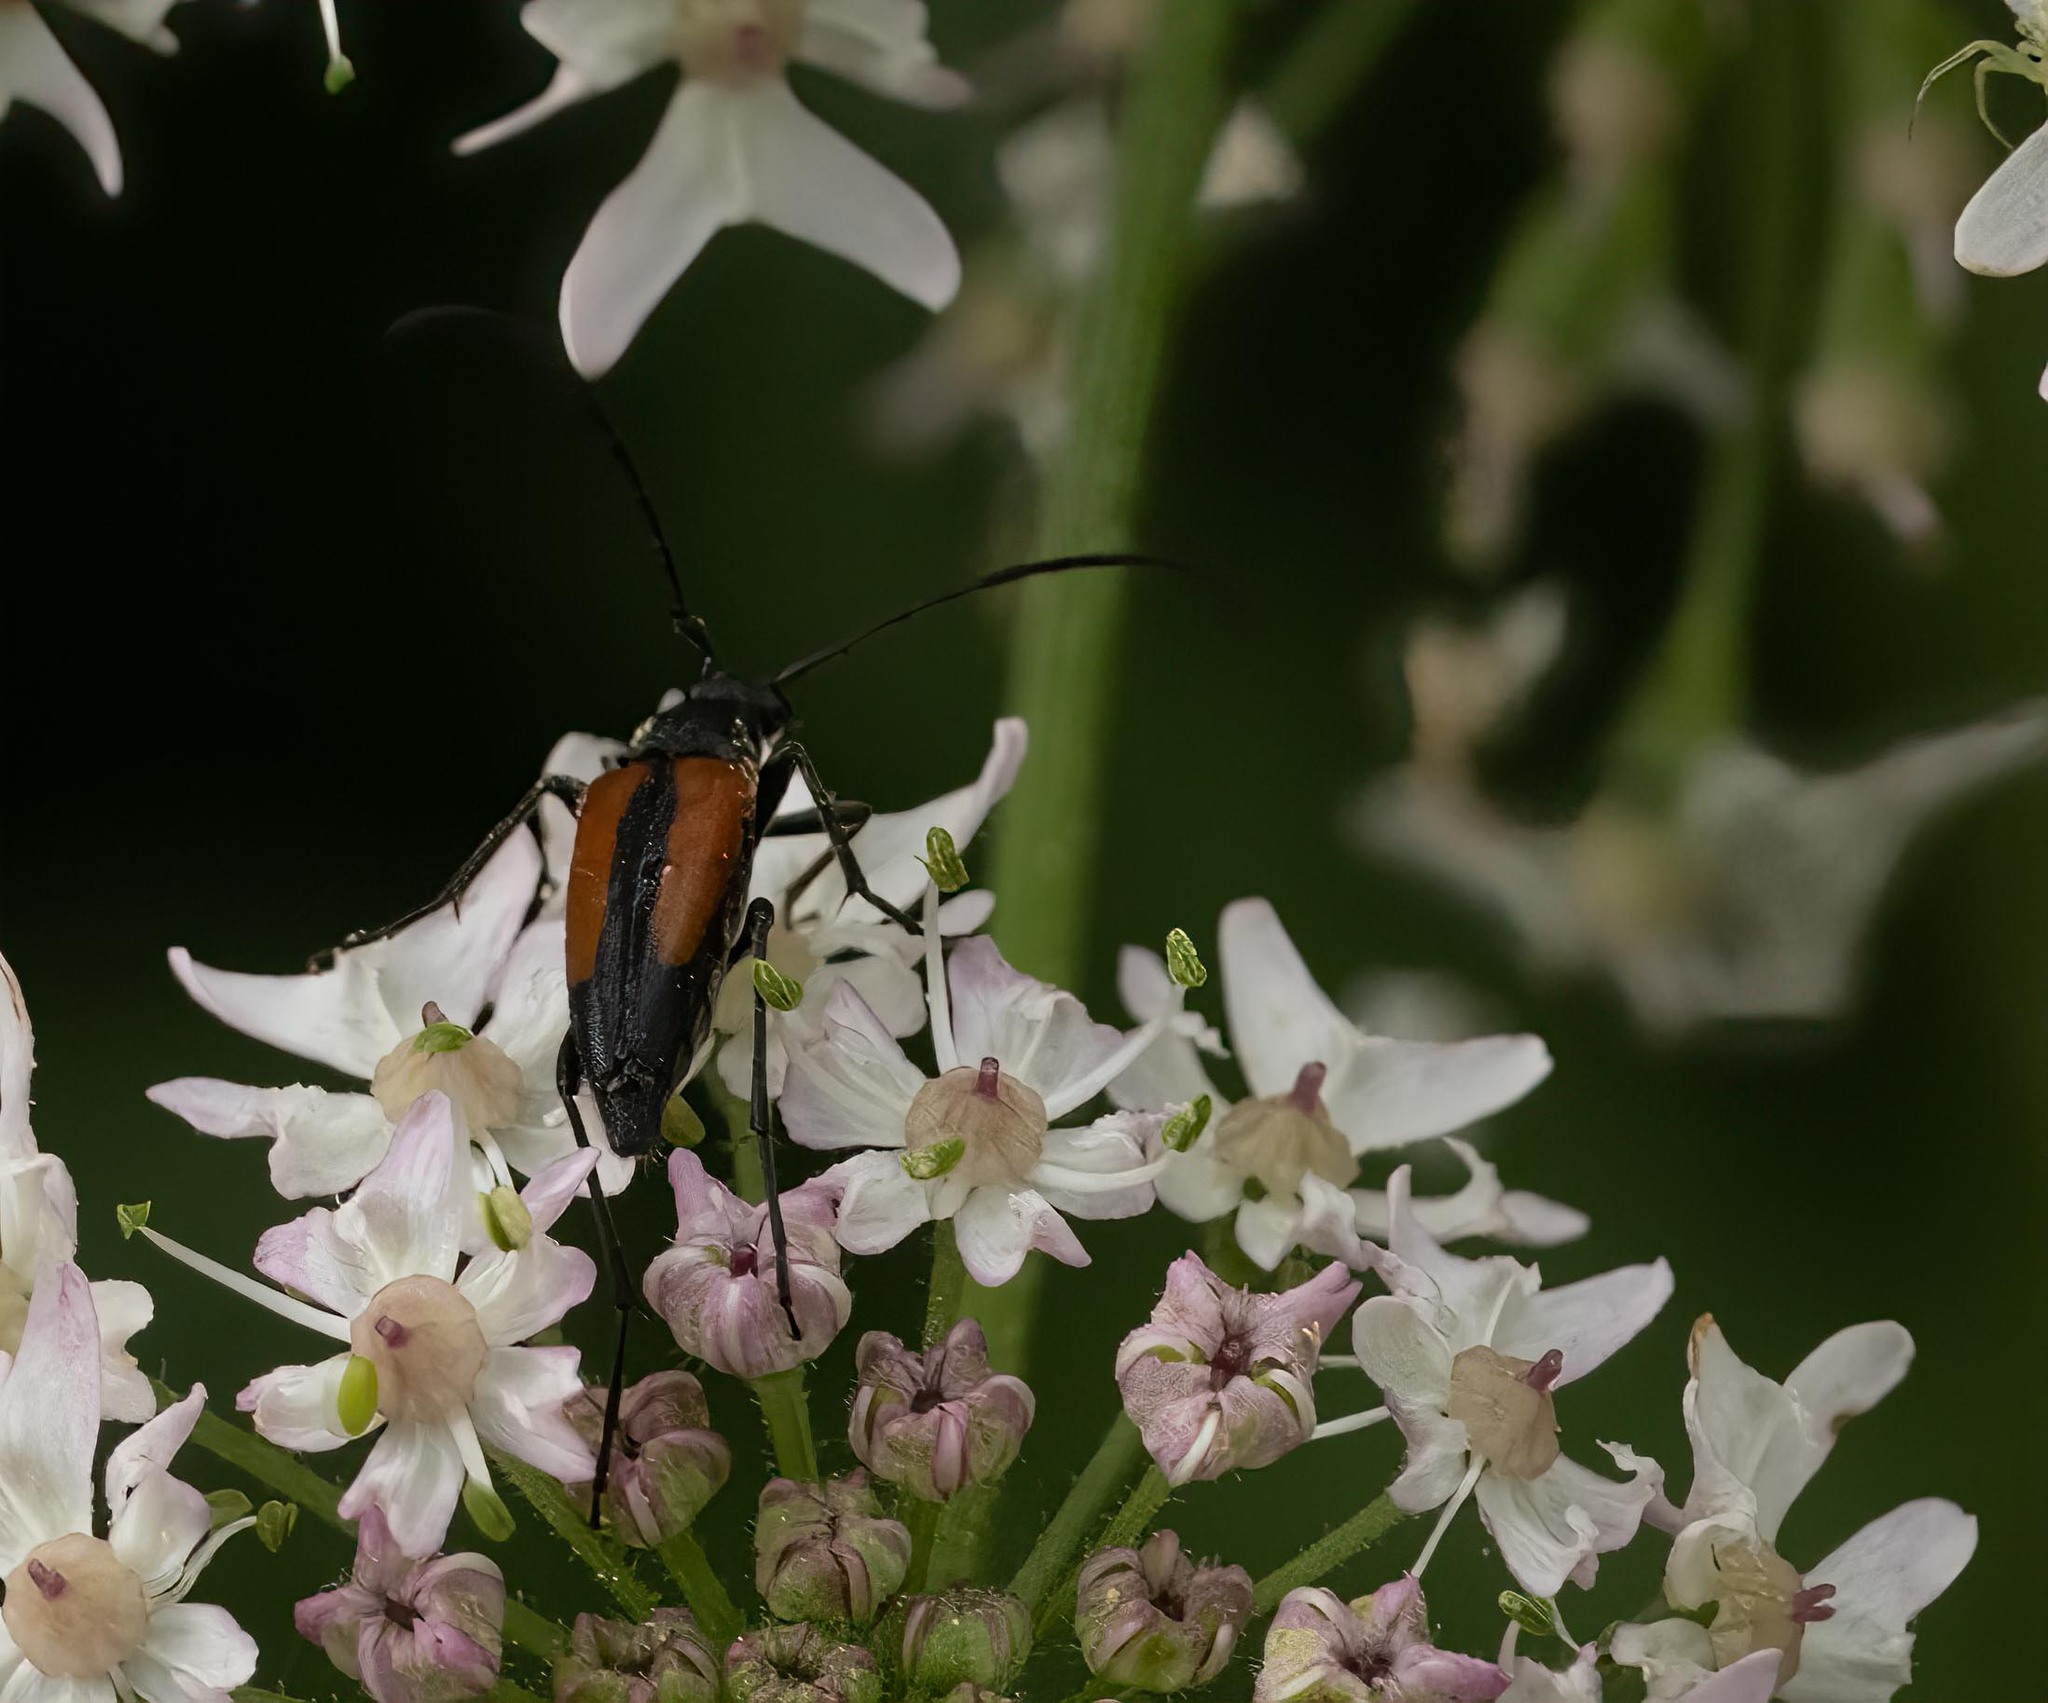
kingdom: Animalia
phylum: Arthropoda
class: Insecta
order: Coleoptera
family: Cerambycidae
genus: Stenurella
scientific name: Stenurella melanura
